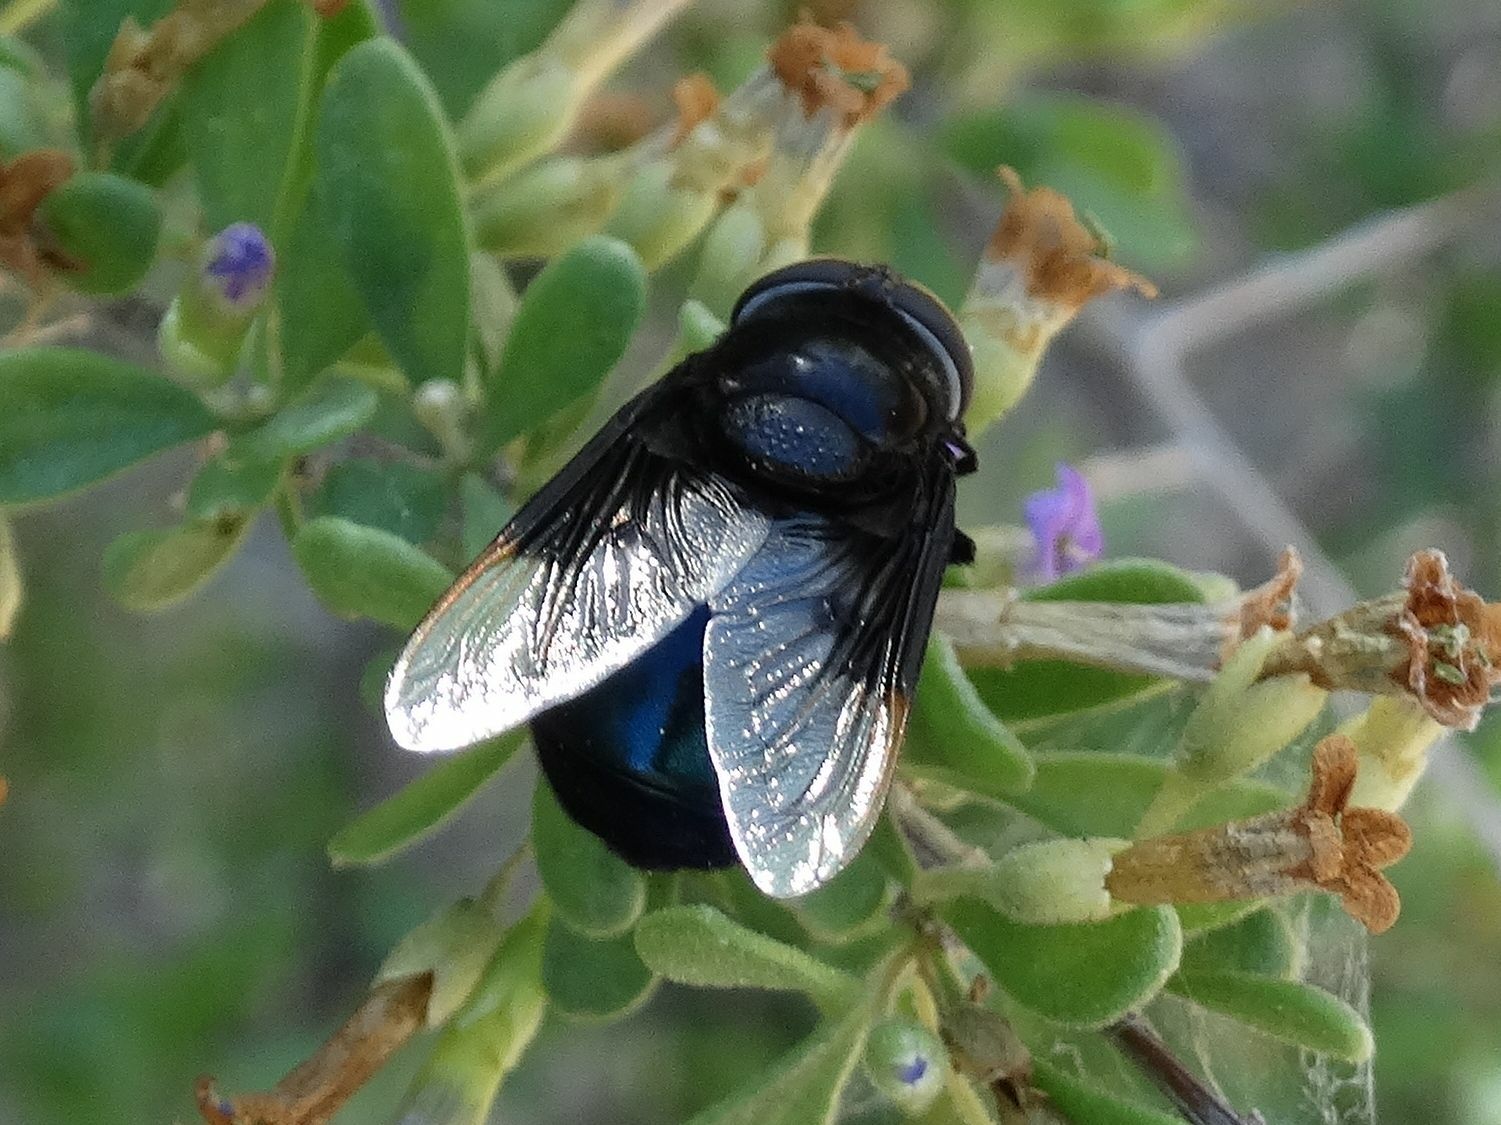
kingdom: Animalia
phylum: Arthropoda
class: Insecta
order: Diptera
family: Syrphidae
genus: Copestylum
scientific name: Copestylum
